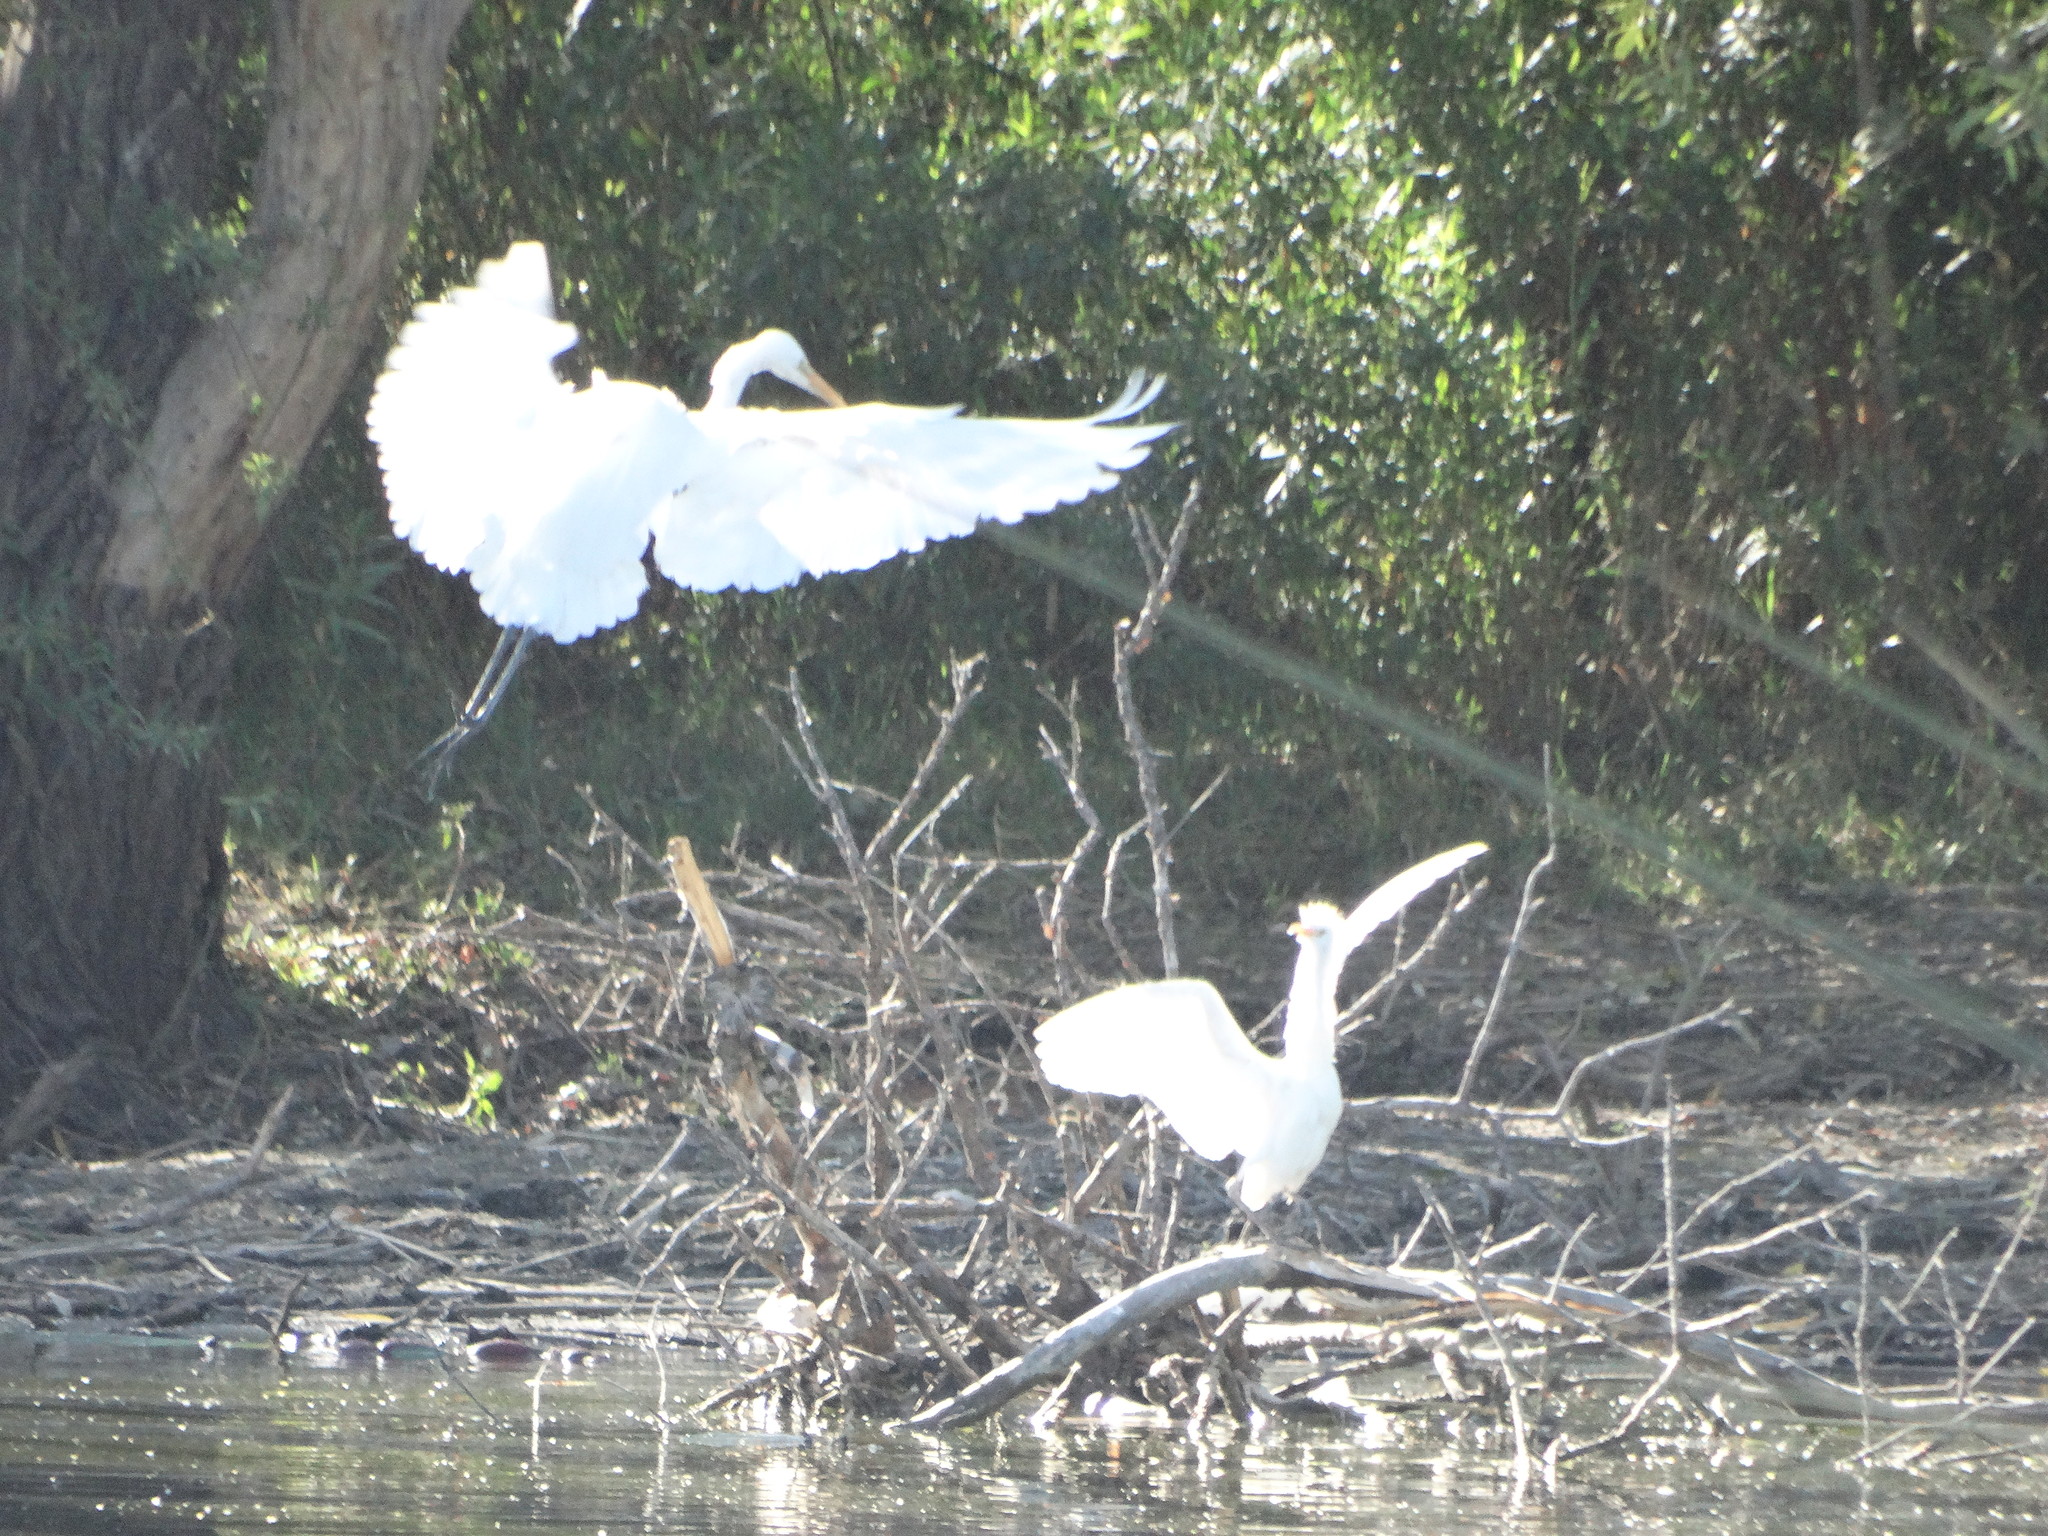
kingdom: Animalia
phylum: Chordata
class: Aves
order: Pelecaniformes
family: Ardeidae
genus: Ardea
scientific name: Ardea alba
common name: Great egret
